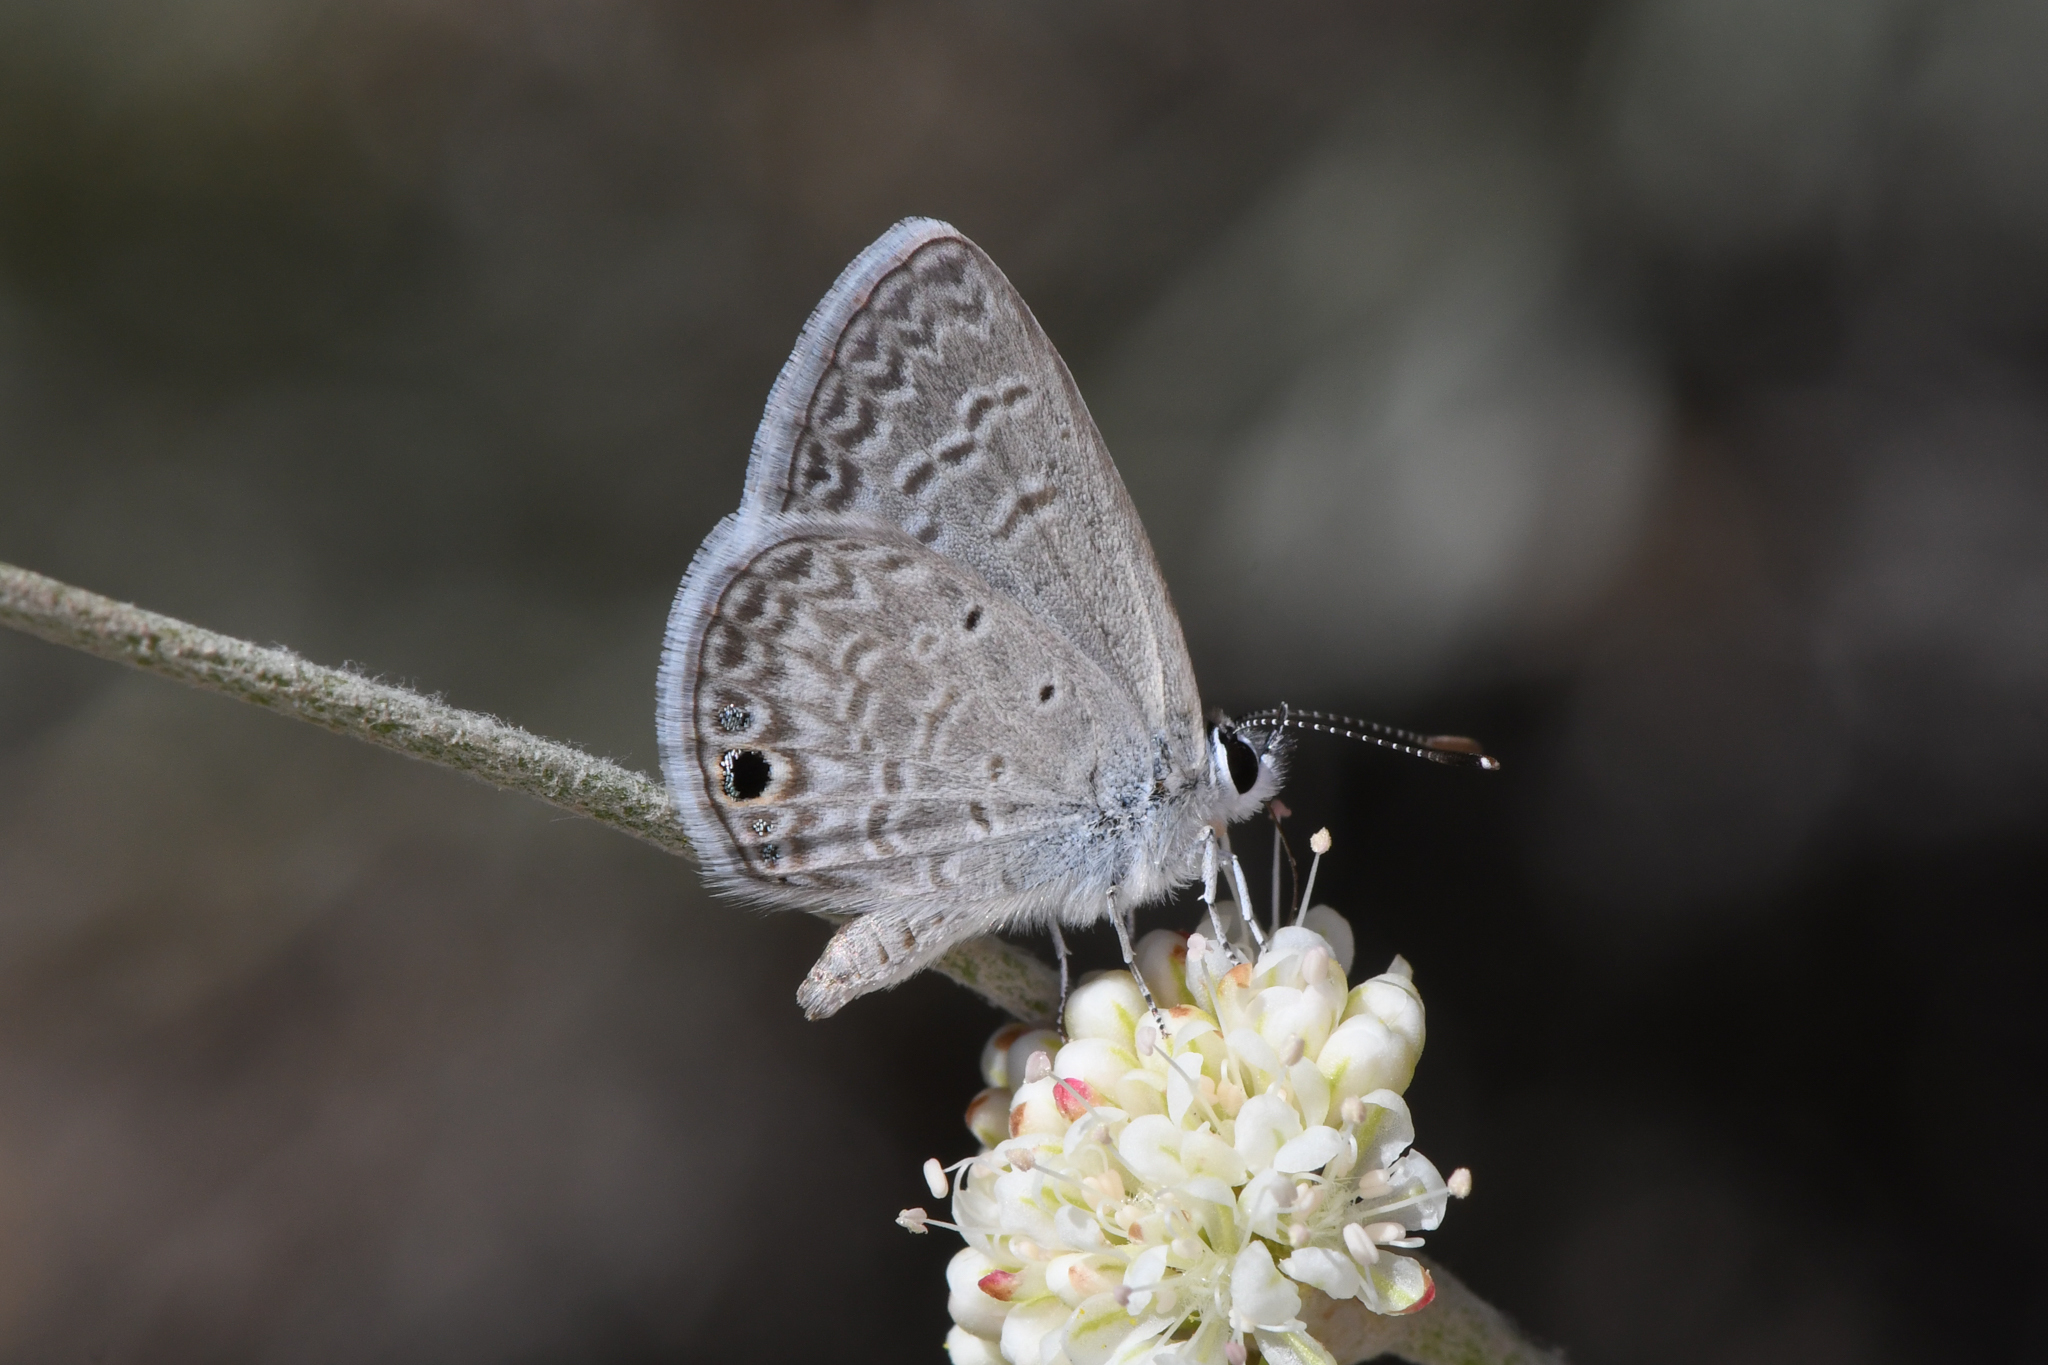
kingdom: Animalia
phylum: Arthropoda
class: Insecta
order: Lepidoptera
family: Lycaenidae
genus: Hemiargus
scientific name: Hemiargus ceraunus
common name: Ceraunus blue
